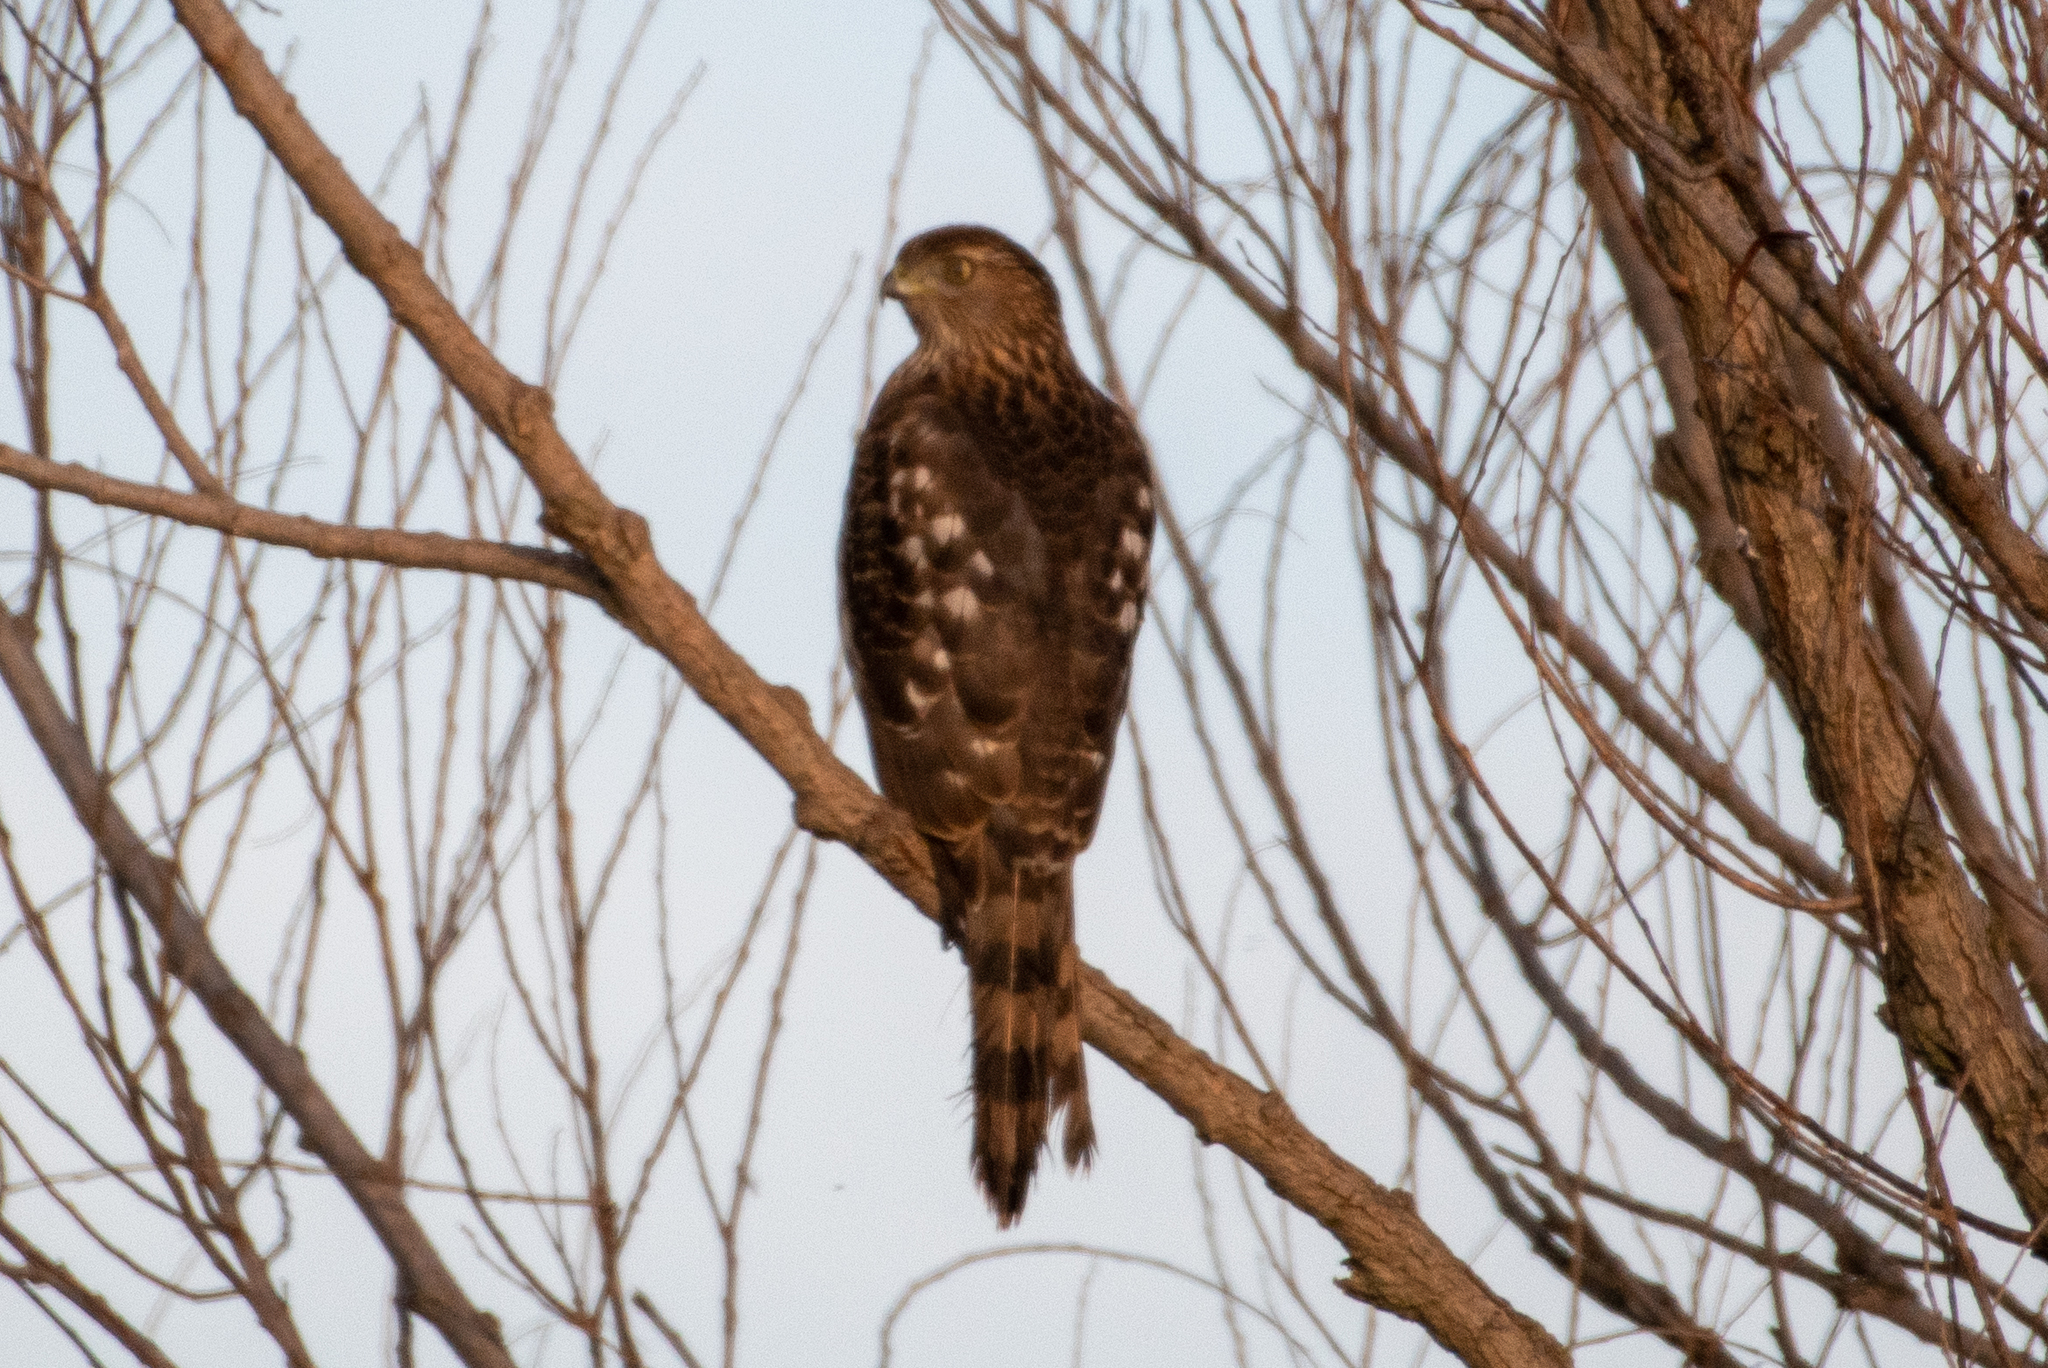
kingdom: Animalia
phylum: Chordata
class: Aves
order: Accipitriformes
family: Accipitridae
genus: Accipiter
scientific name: Accipiter cooperii
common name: Cooper's hawk
